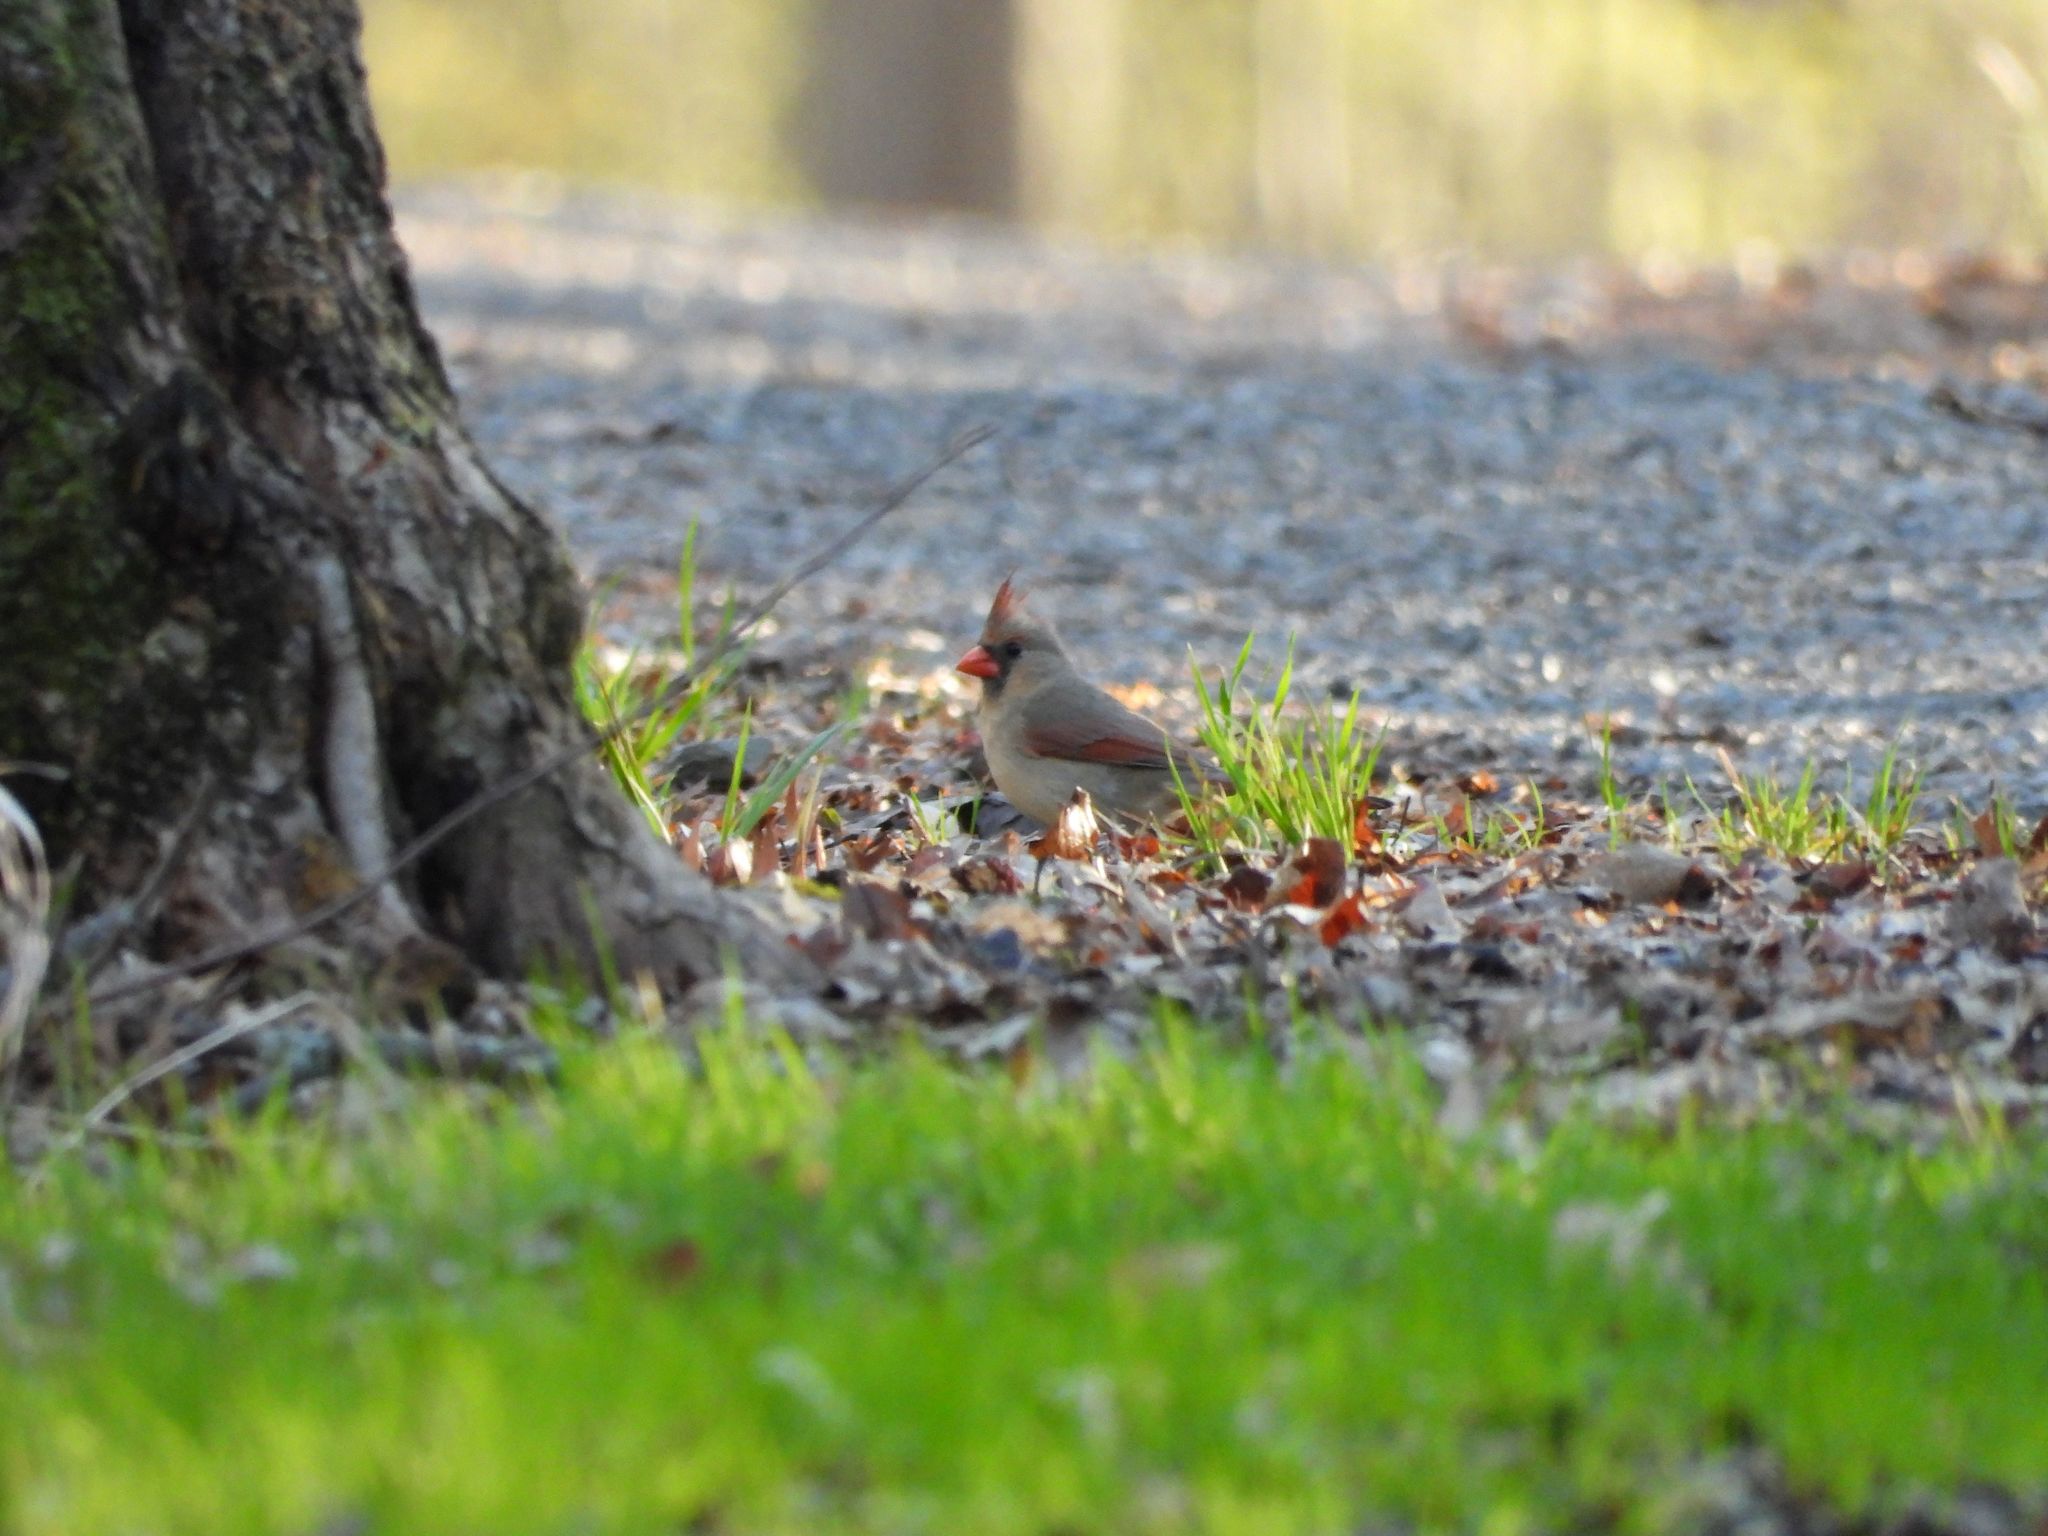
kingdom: Animalia
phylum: Chordata
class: Aves
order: Passeriformes
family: Cardinalidae
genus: Cardinalis
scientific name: Cardinalis cardinalis
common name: Northern cardinal
